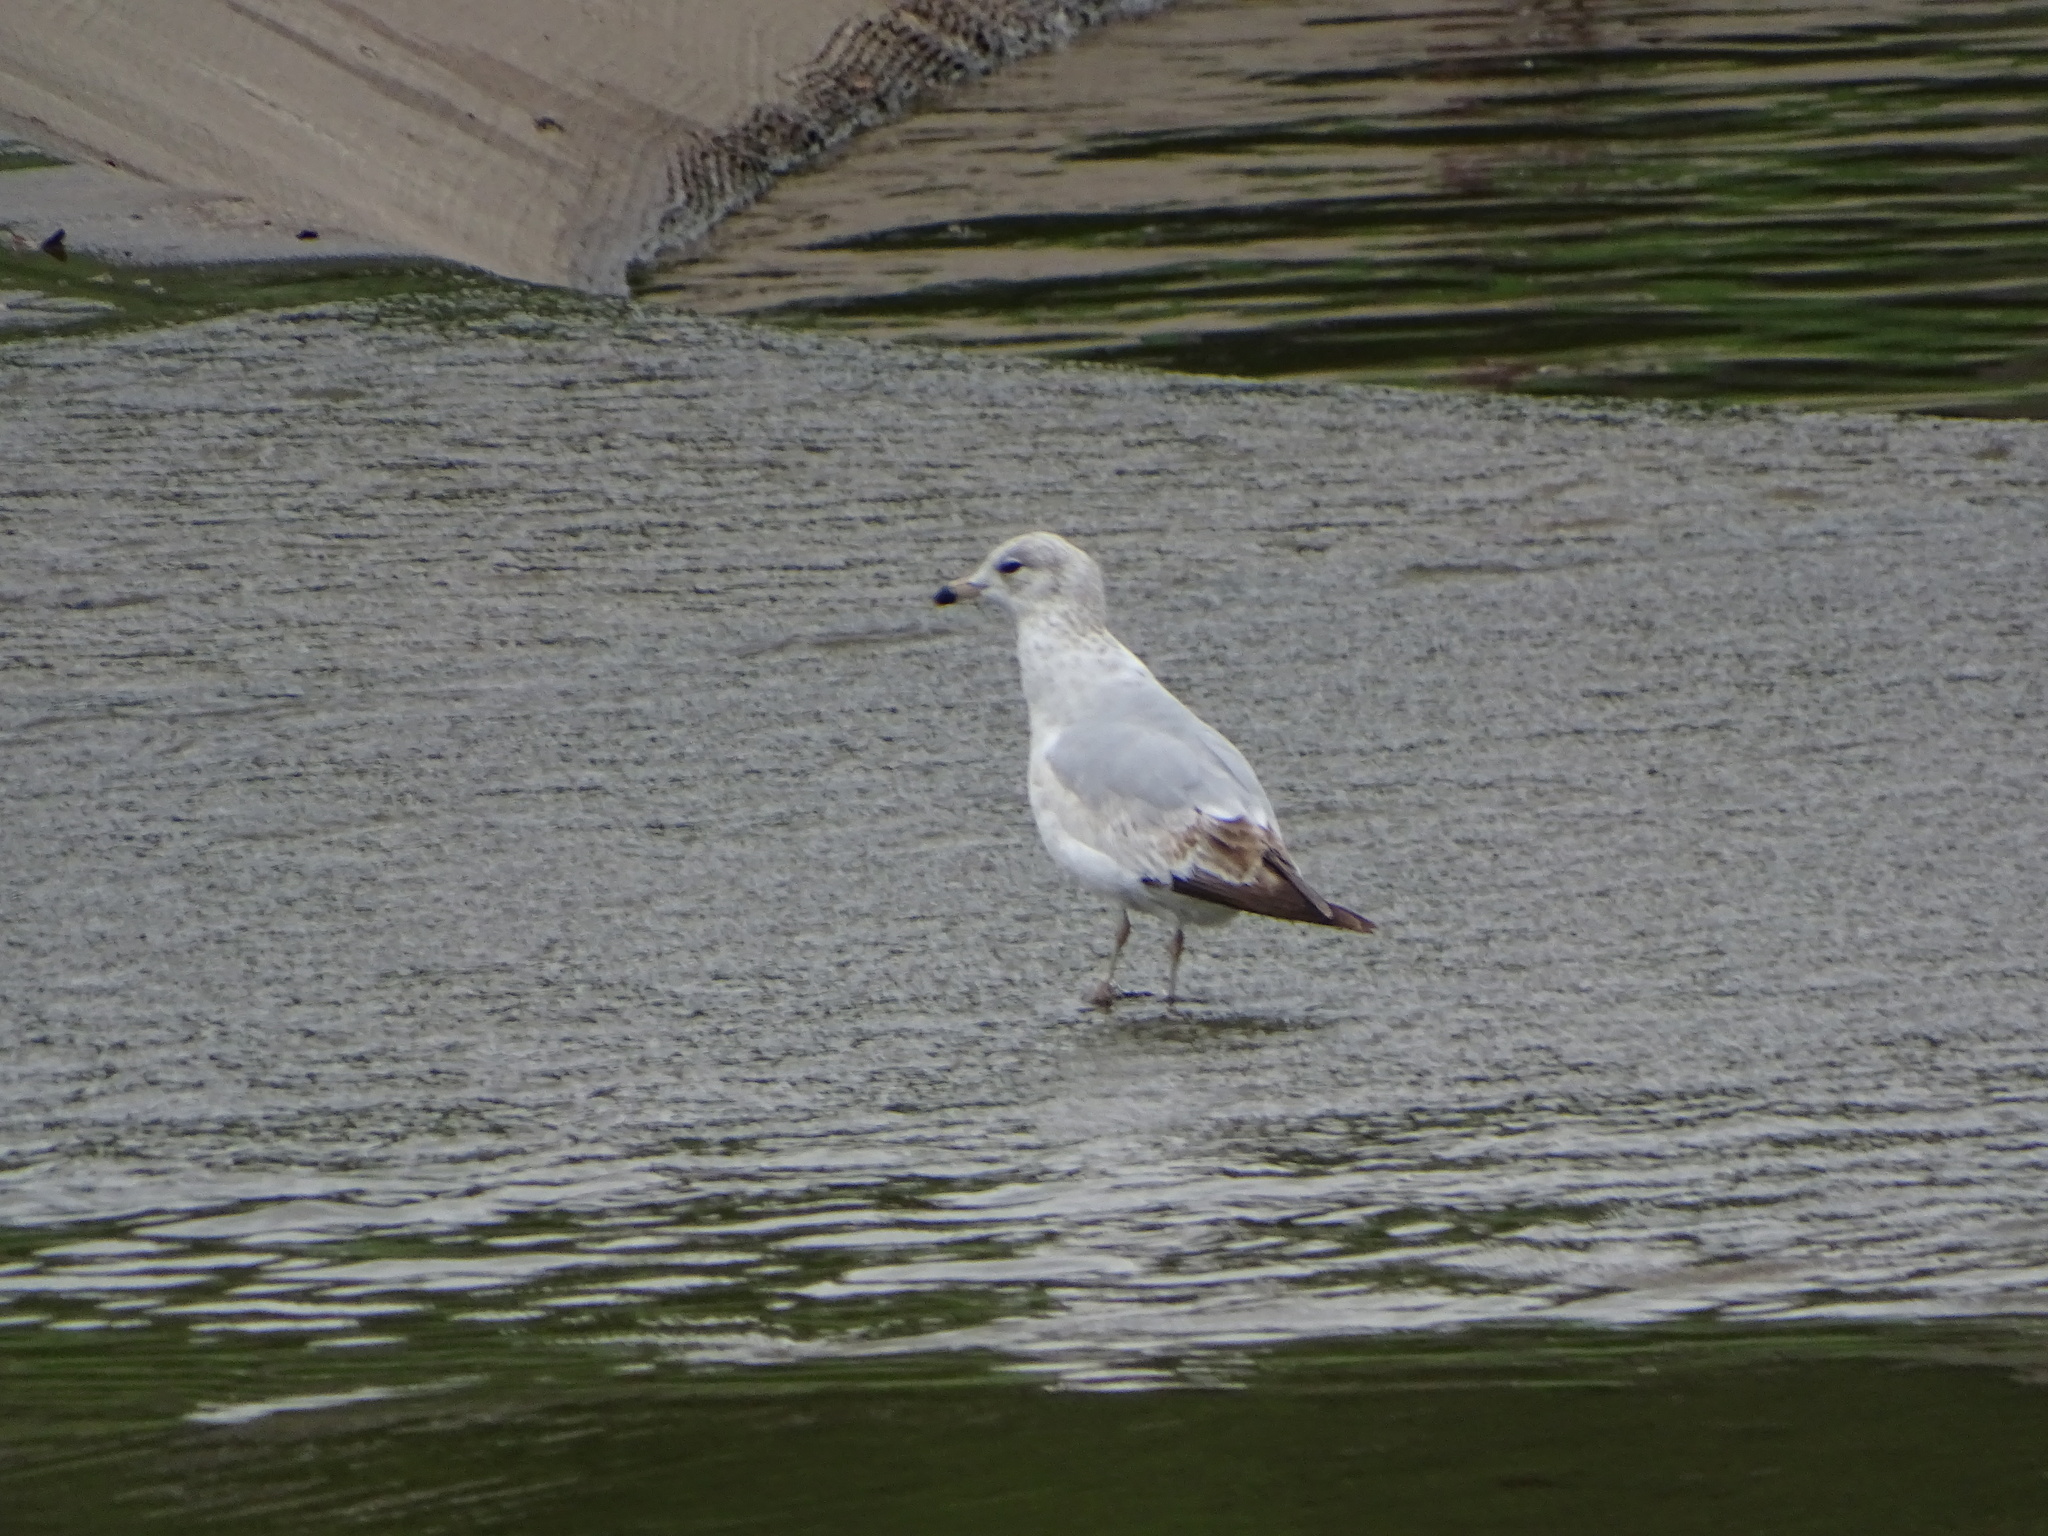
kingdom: Animalia
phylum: Chordata
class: Aves
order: Charadriiformes
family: Laridae
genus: Larus
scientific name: Larus delawarensis
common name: Ring-billed gull
